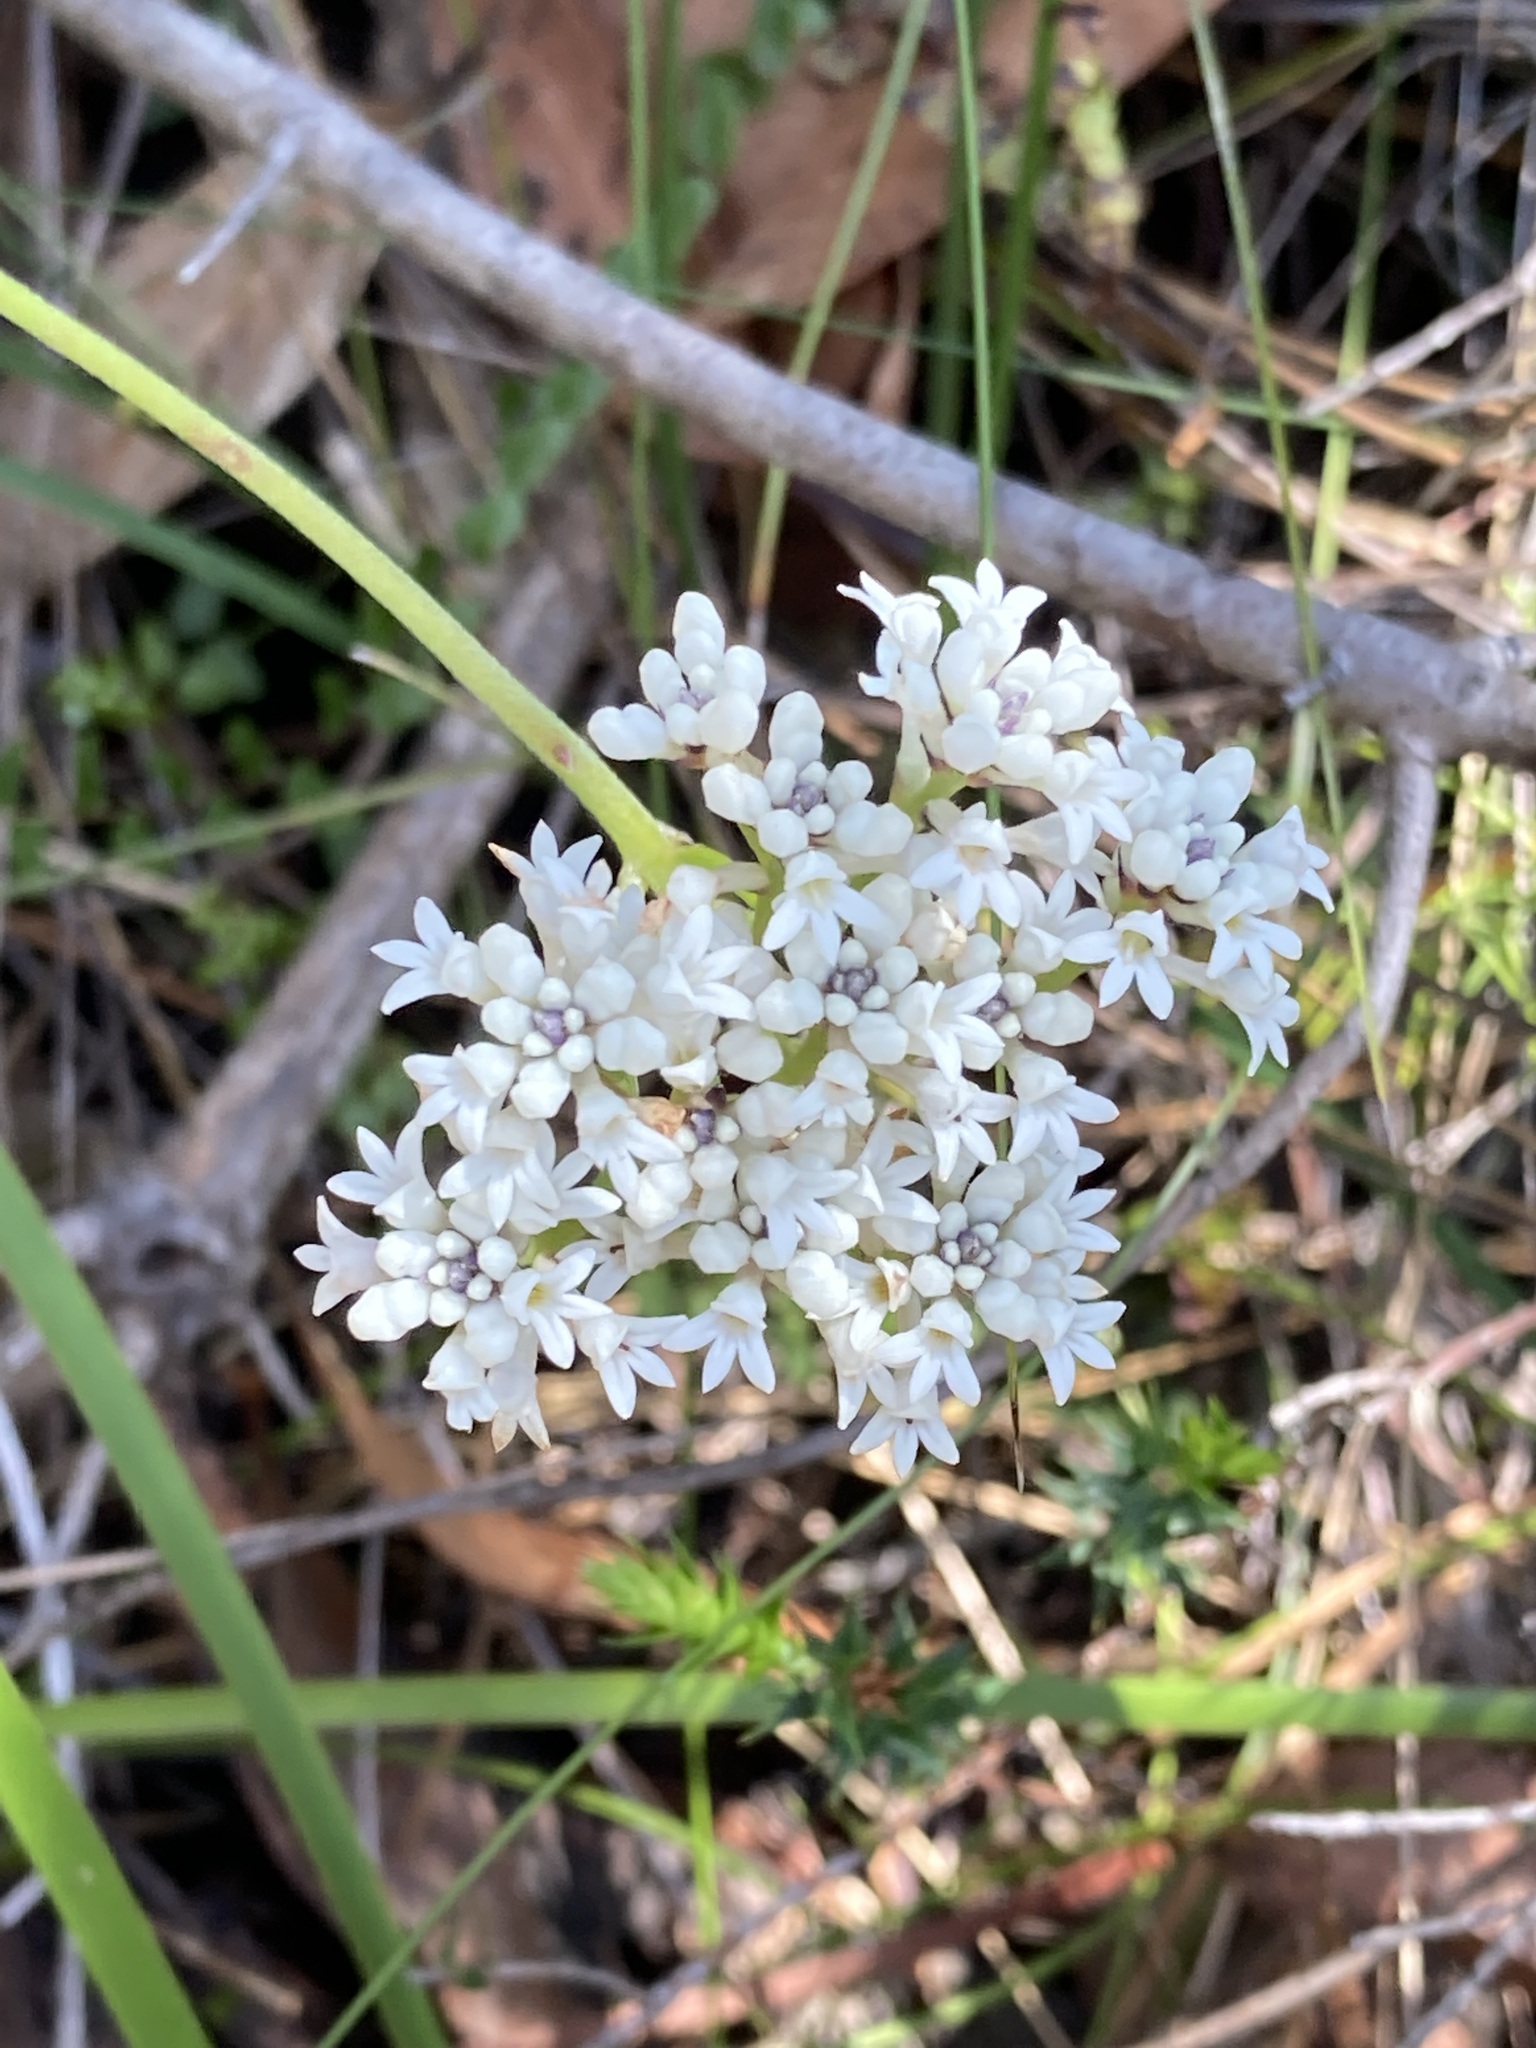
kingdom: Plantae
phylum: Tracheophyta
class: Magnoliopsida
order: Proteales
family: Proteaceae
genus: Conospermum
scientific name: Conospermum longifolium
